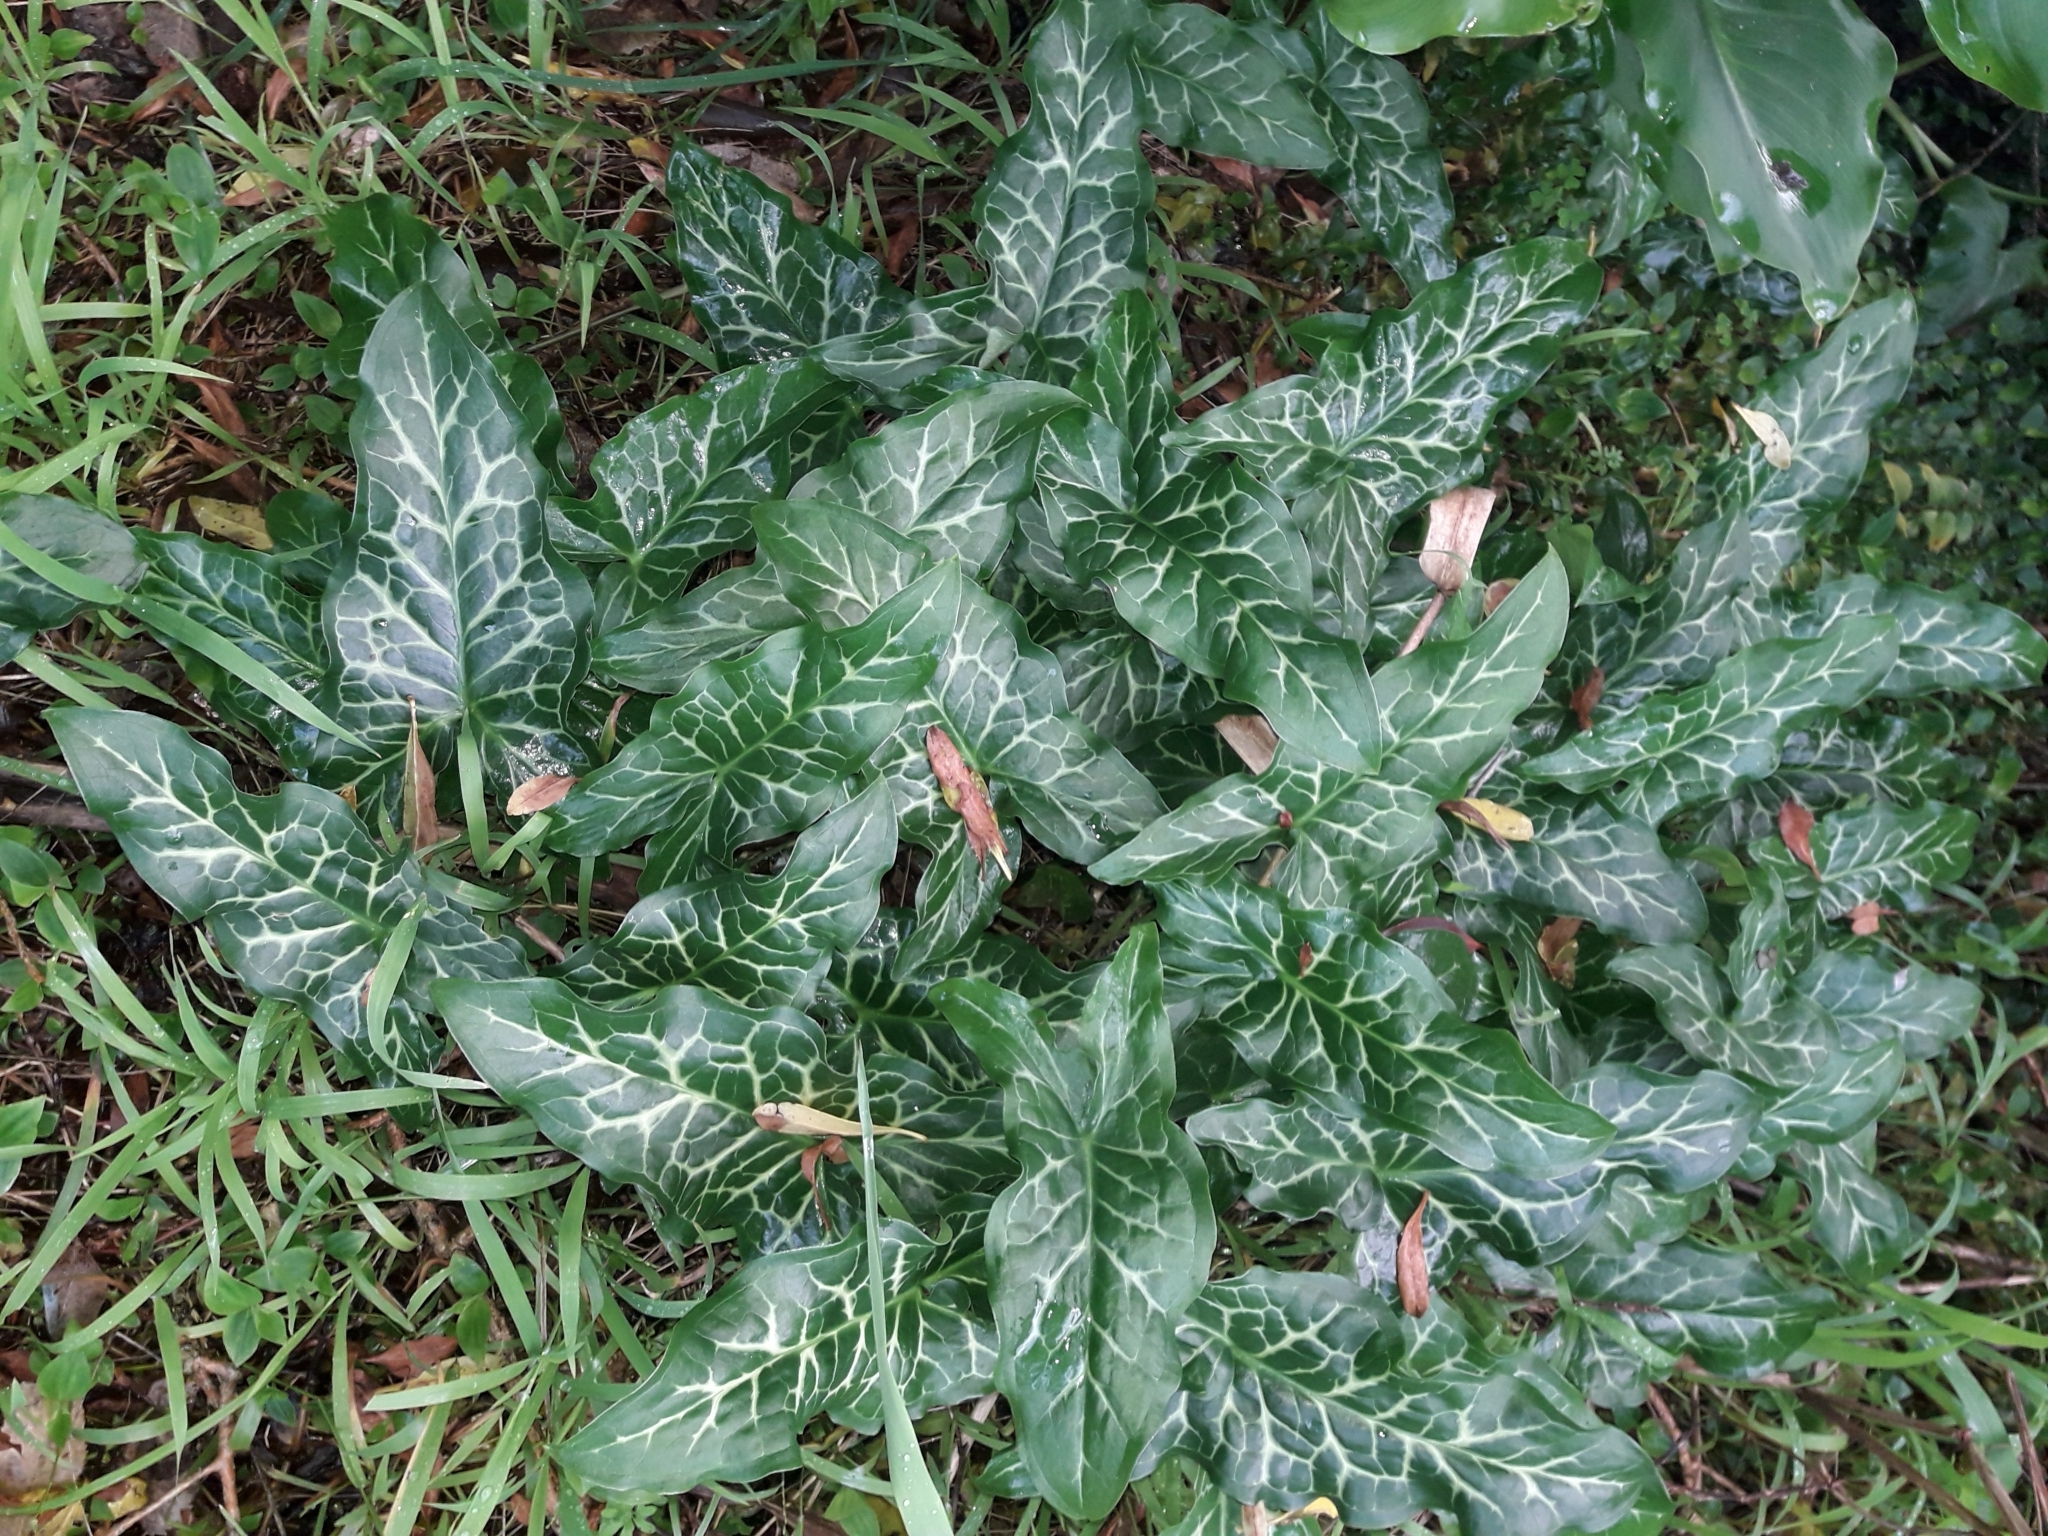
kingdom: Plantae
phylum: Tracheophyta
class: Liliopsida
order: Alismatales
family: Araceae
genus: Arum
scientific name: Arum italicum
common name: Italian lords-and-ladies
